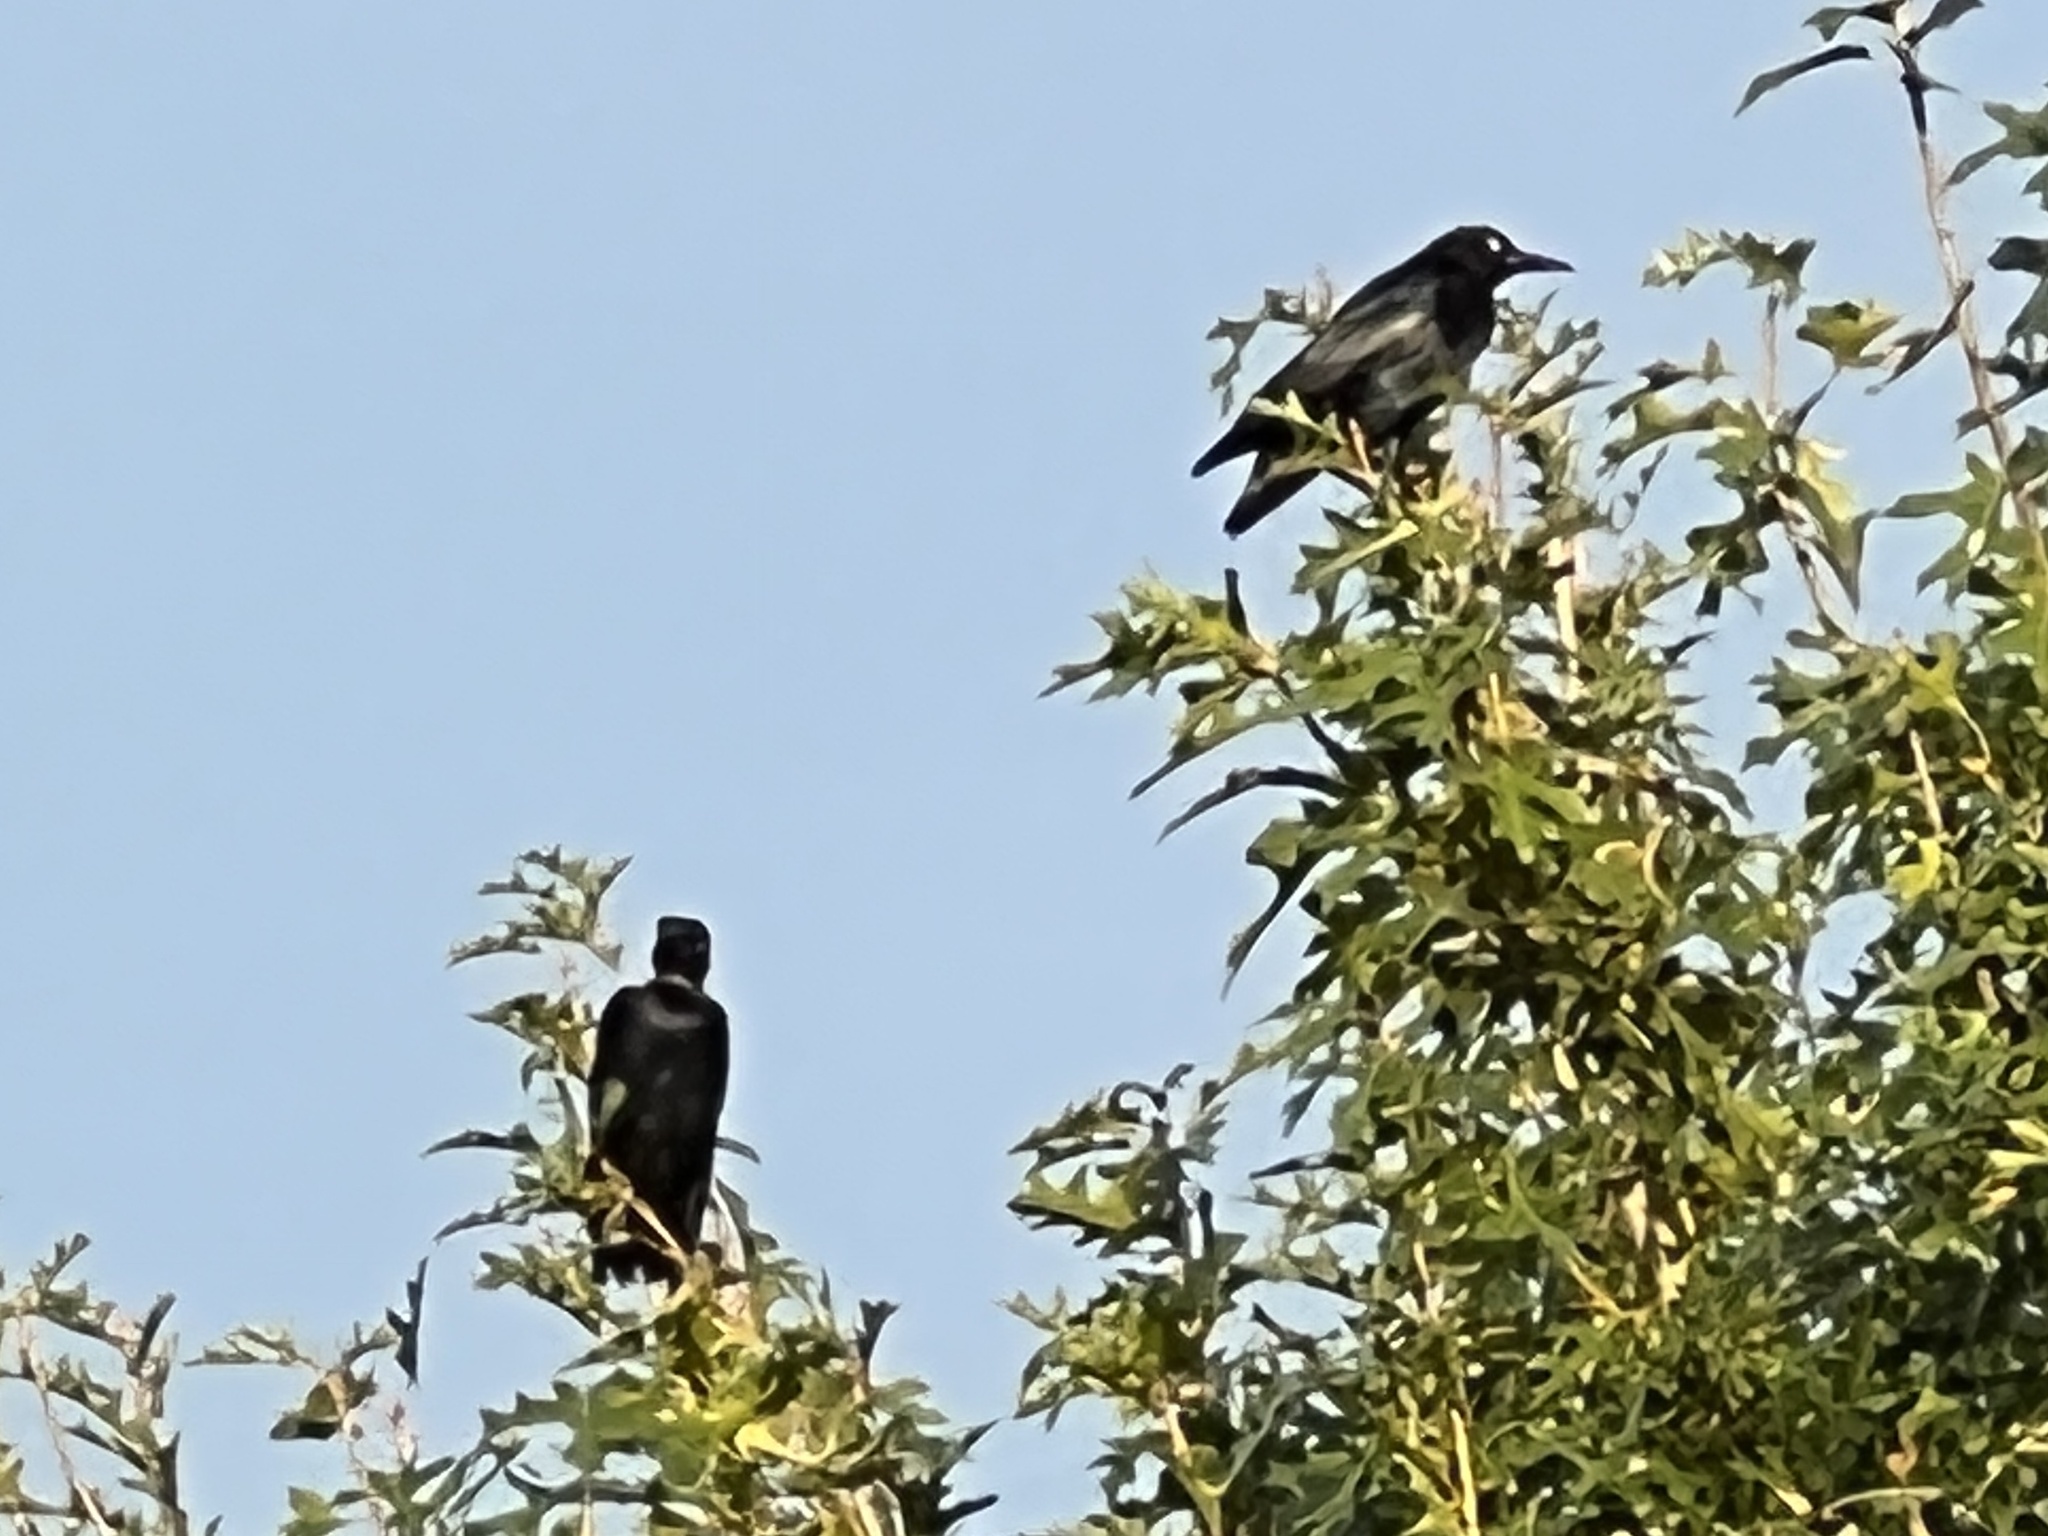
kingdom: Animalia
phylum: Chordata
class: Aves
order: Passeriformes
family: Icteridae
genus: Quiscalus
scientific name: Quiscalus mexicanus
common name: Great-tailed grackle
